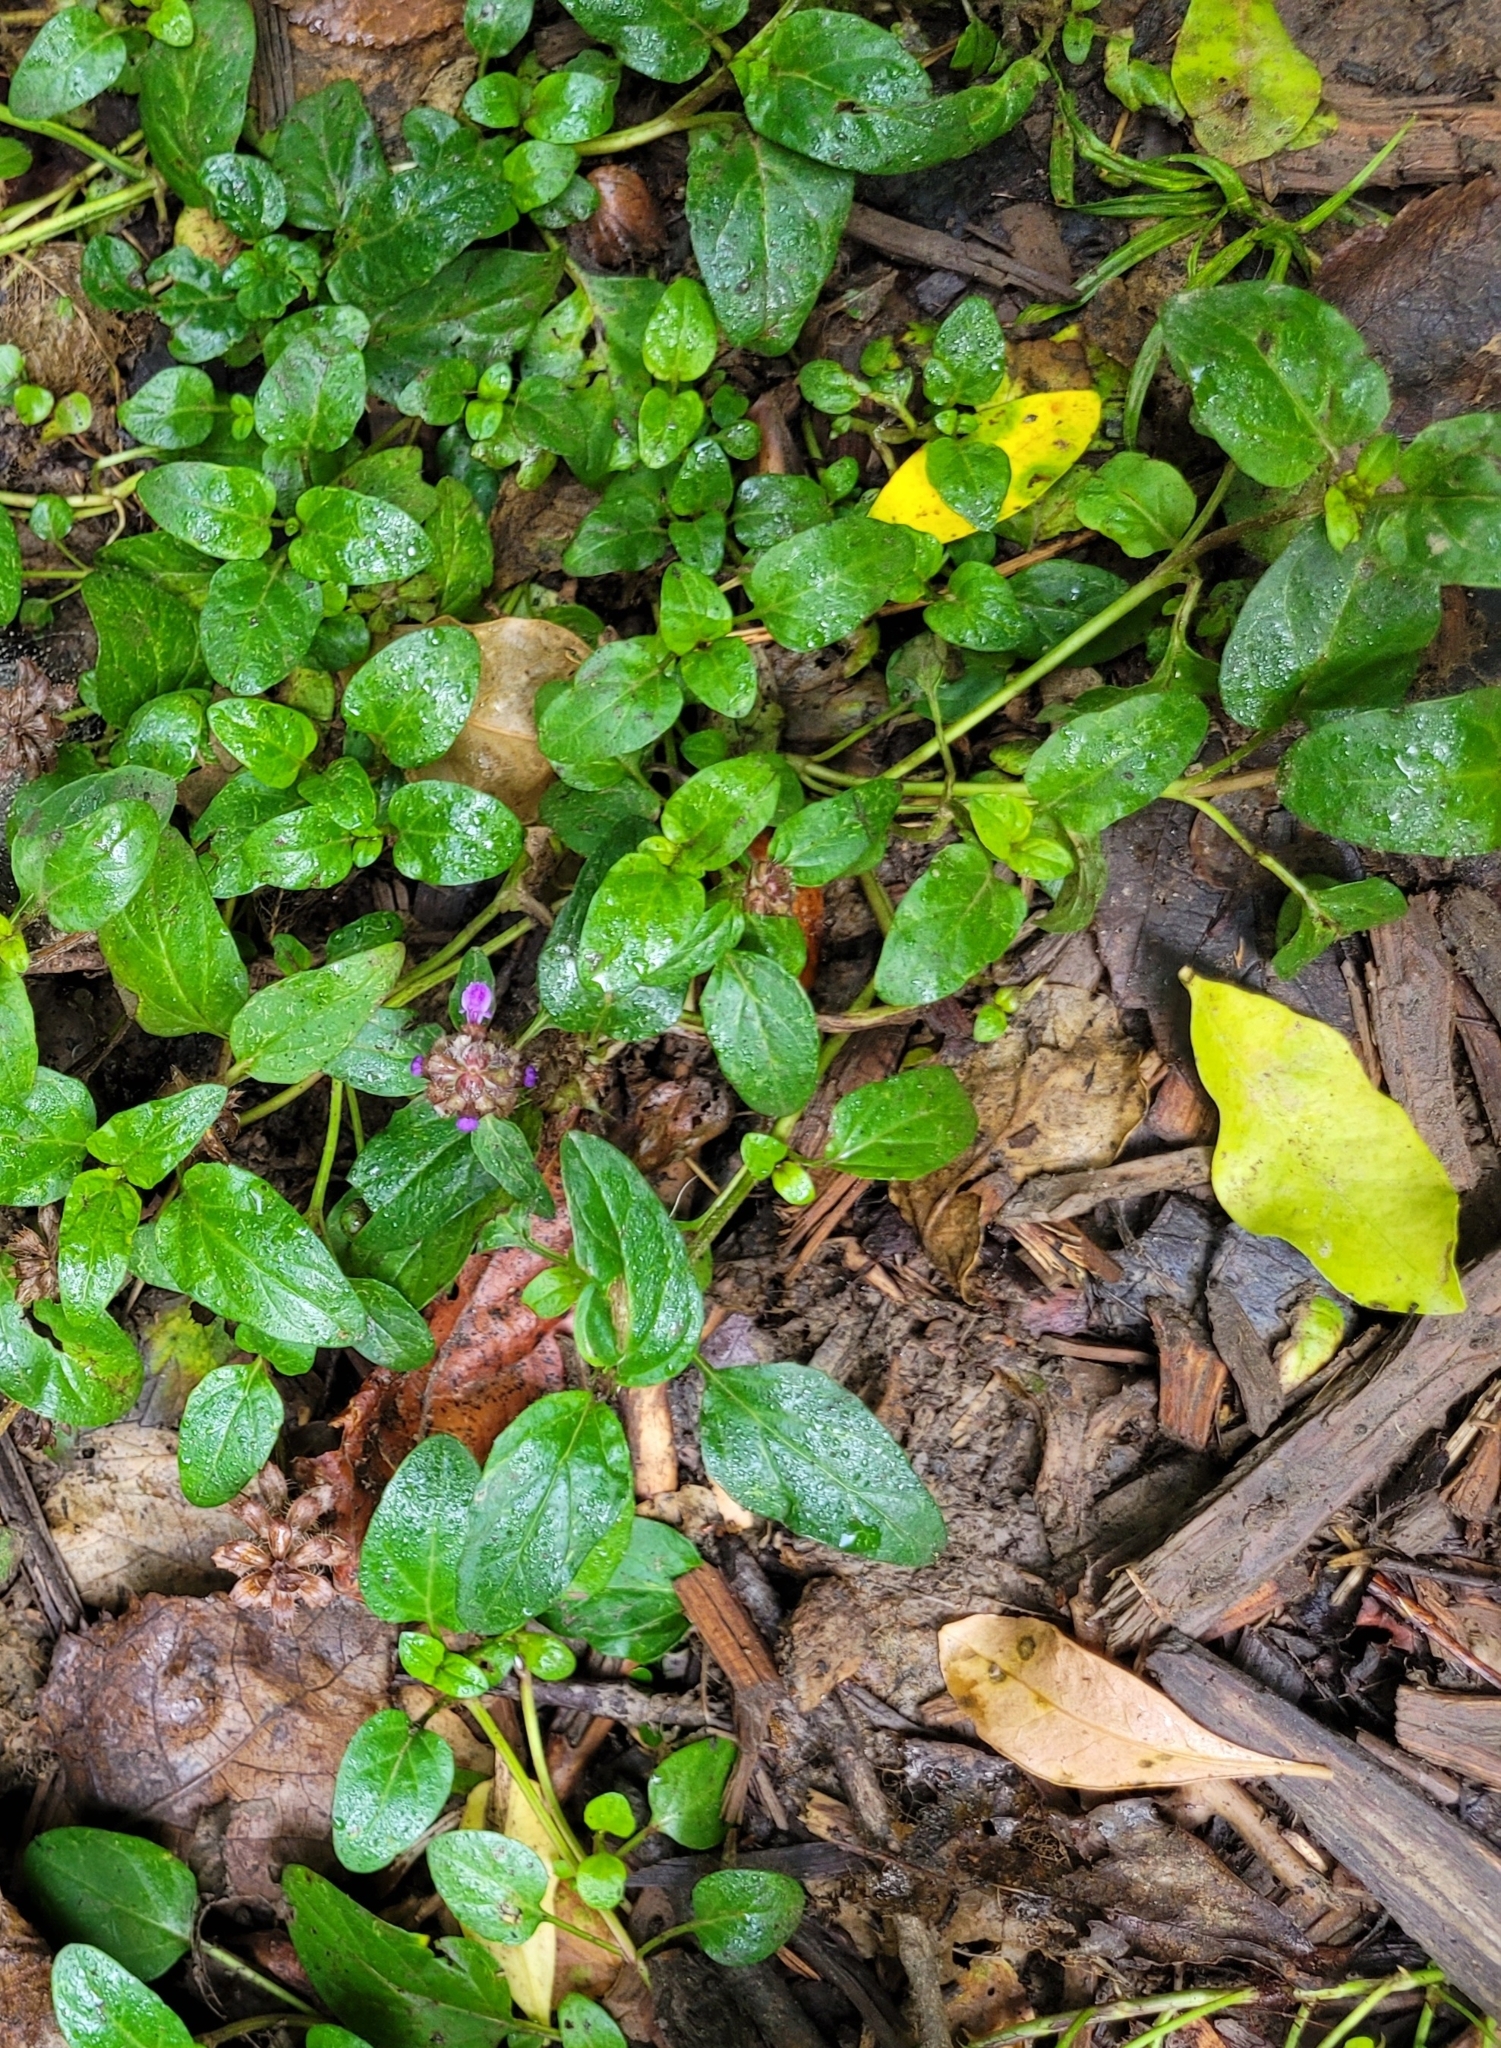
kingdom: Plantae
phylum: Tracheophyta
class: Magnoliopsida
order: Lamiales
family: Lamiaceae
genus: Prunella
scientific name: Prunella vulgaris
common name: Heal-all
